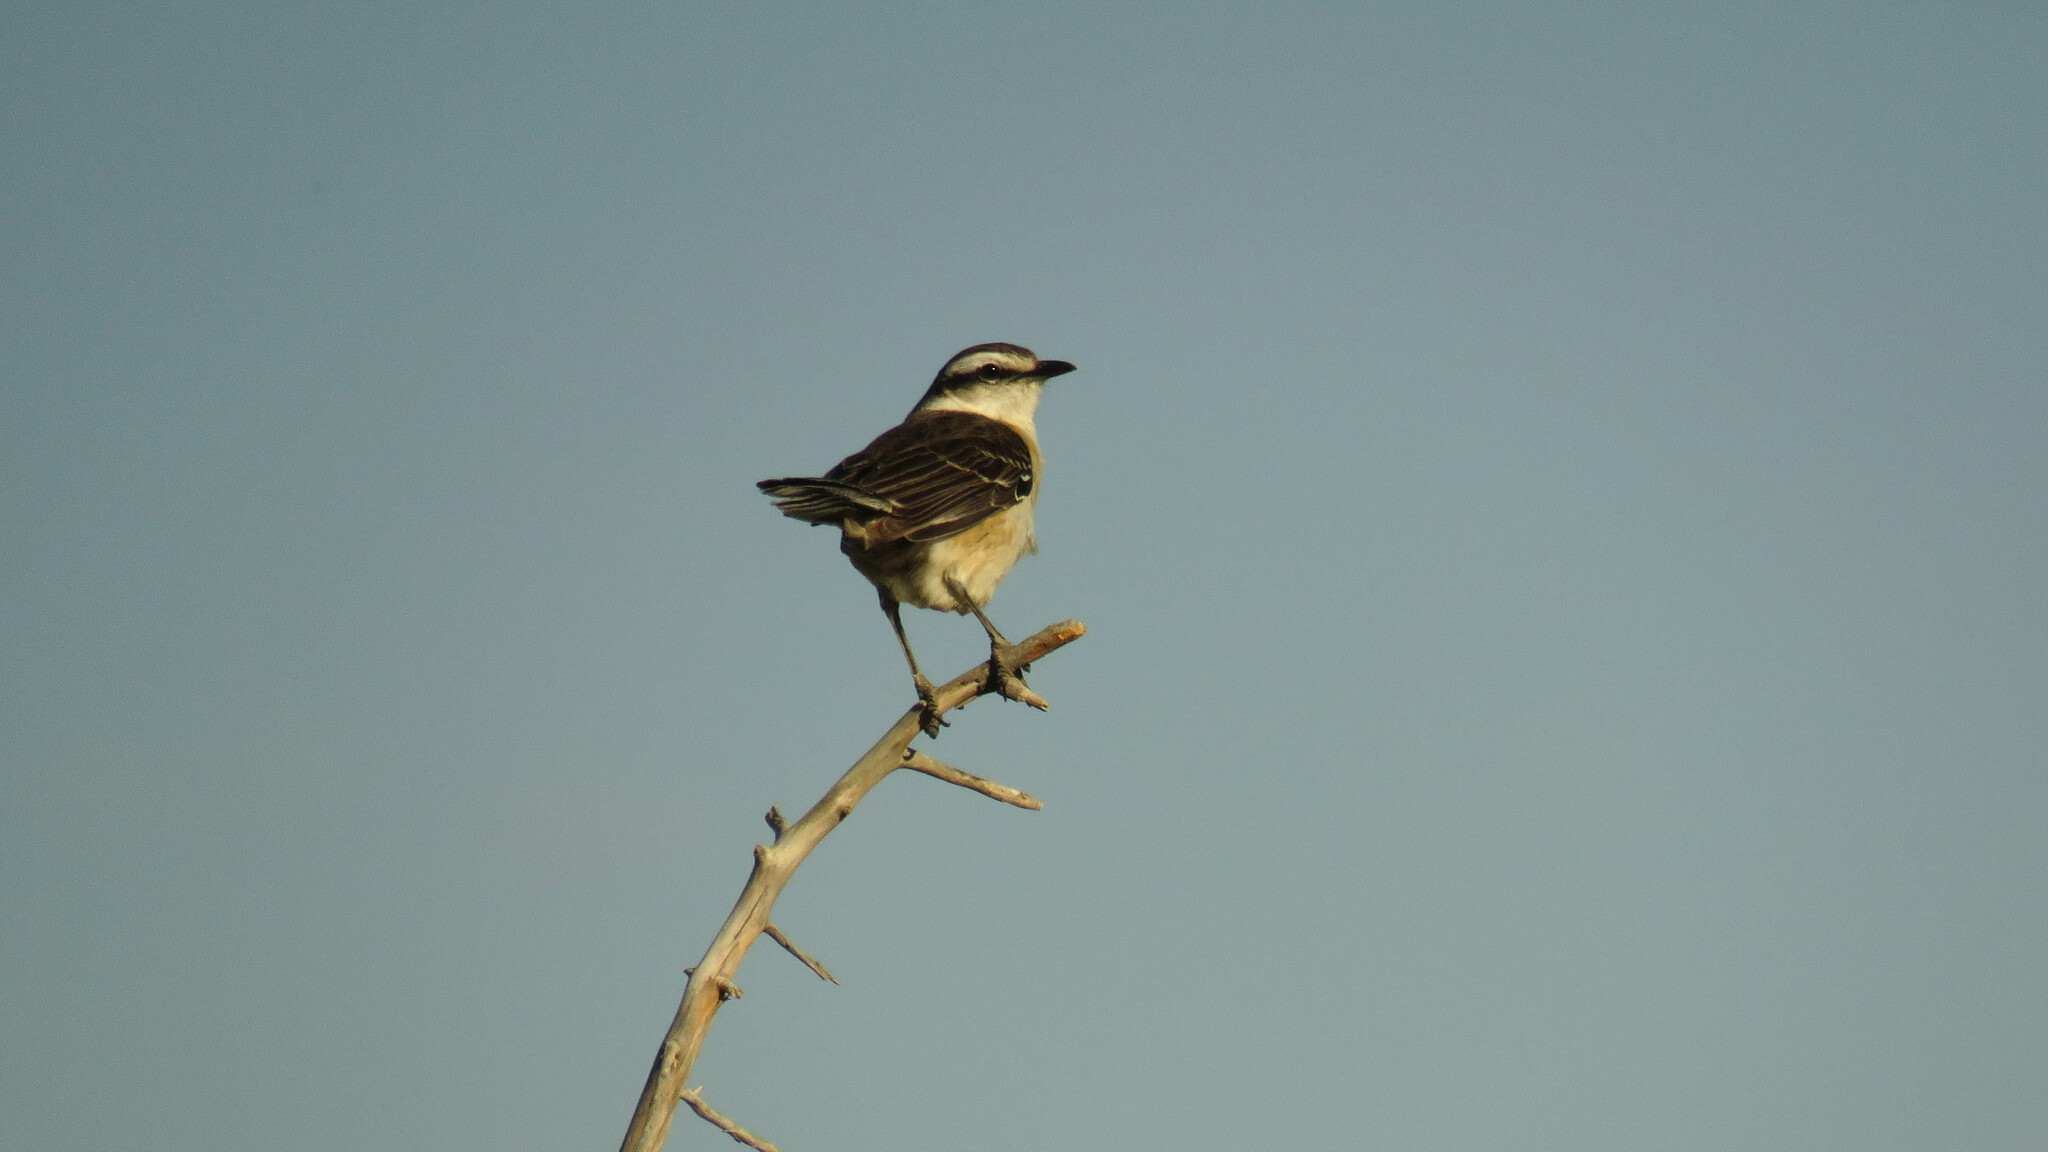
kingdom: Animalia
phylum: Chordata
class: Aves
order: Passeriformes
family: Mimidae
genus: Mimus
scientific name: Mimus saturninus
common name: Chalk-browed mockingbird
